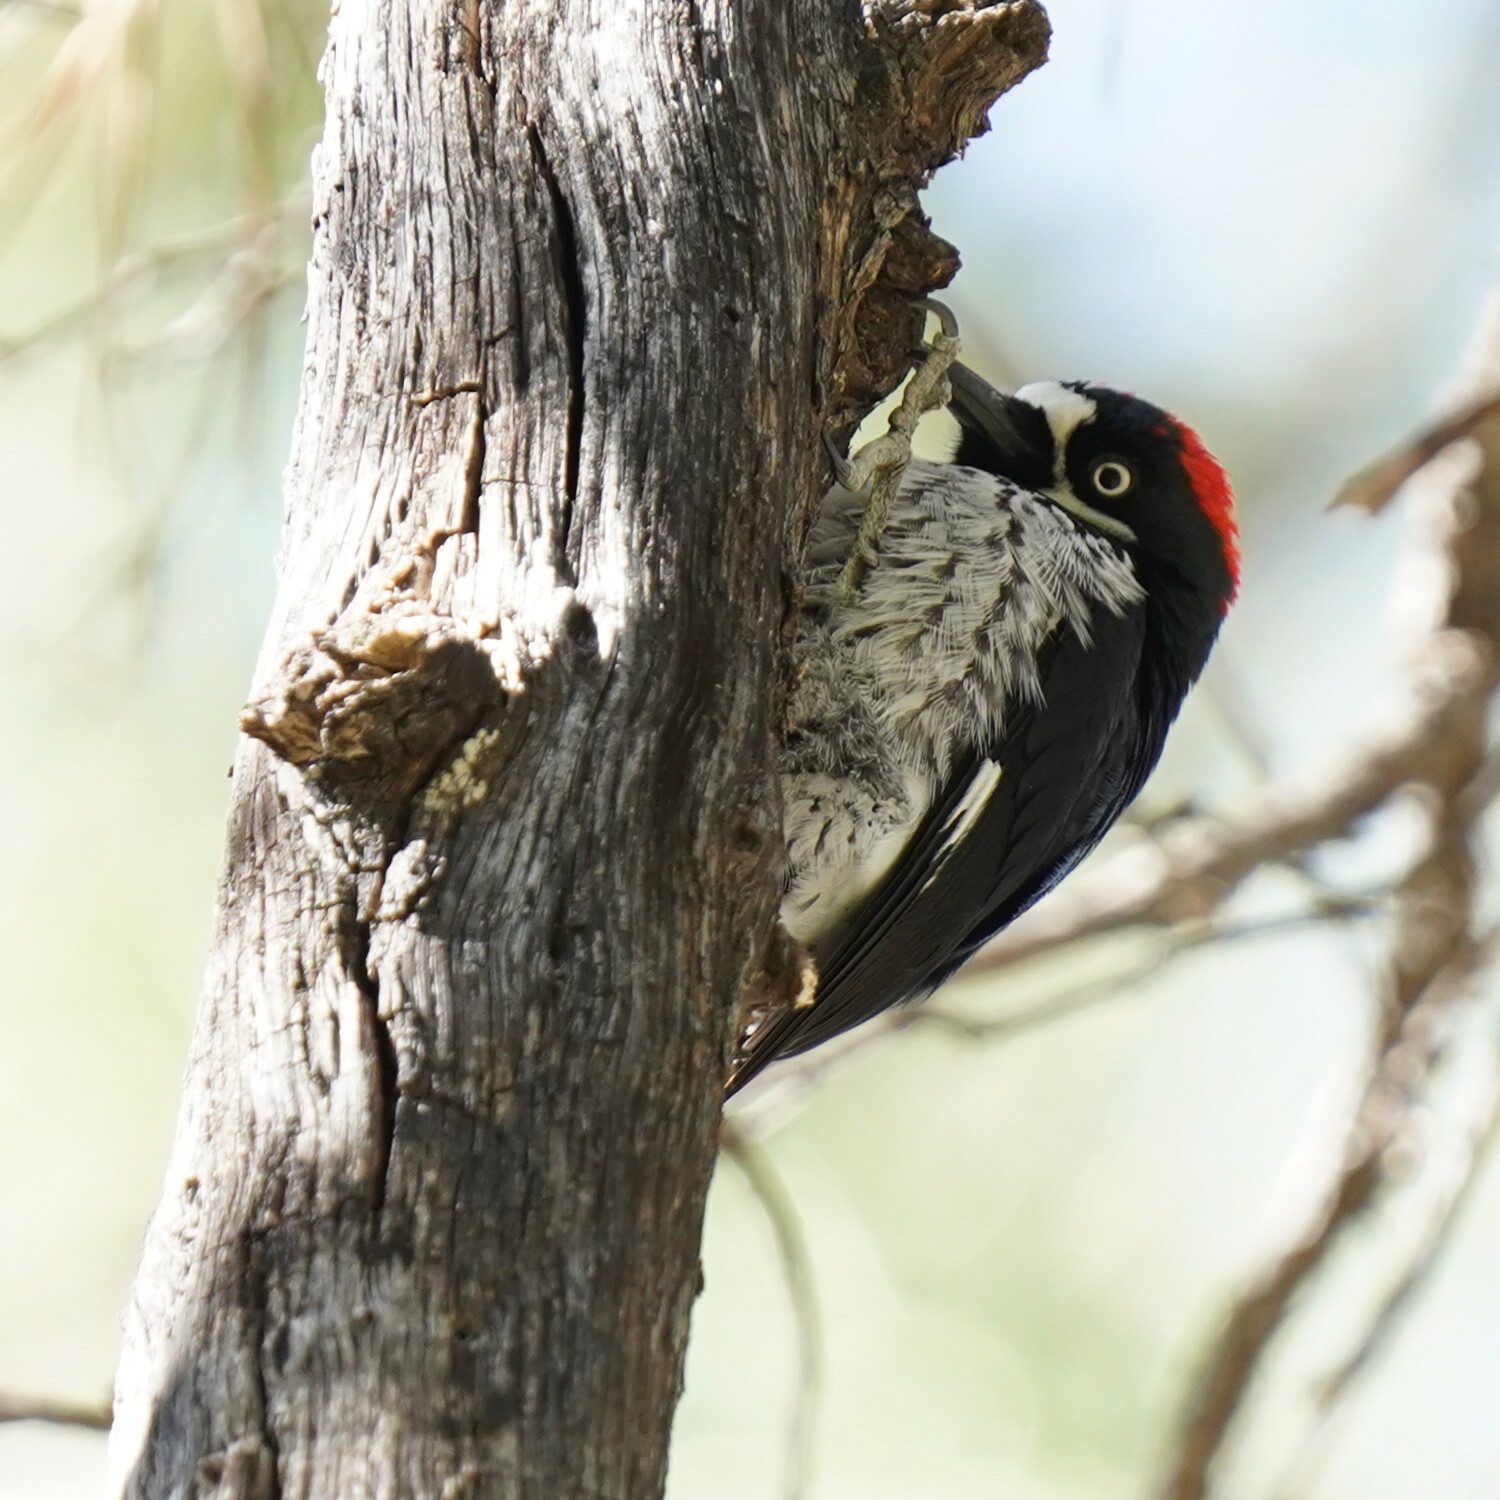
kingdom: Animalia
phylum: Chordata
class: Aves
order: Piciformes
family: Picidae
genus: Melanerpes
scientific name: Melanerpes formicivorus
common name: Acorn woodpecker
